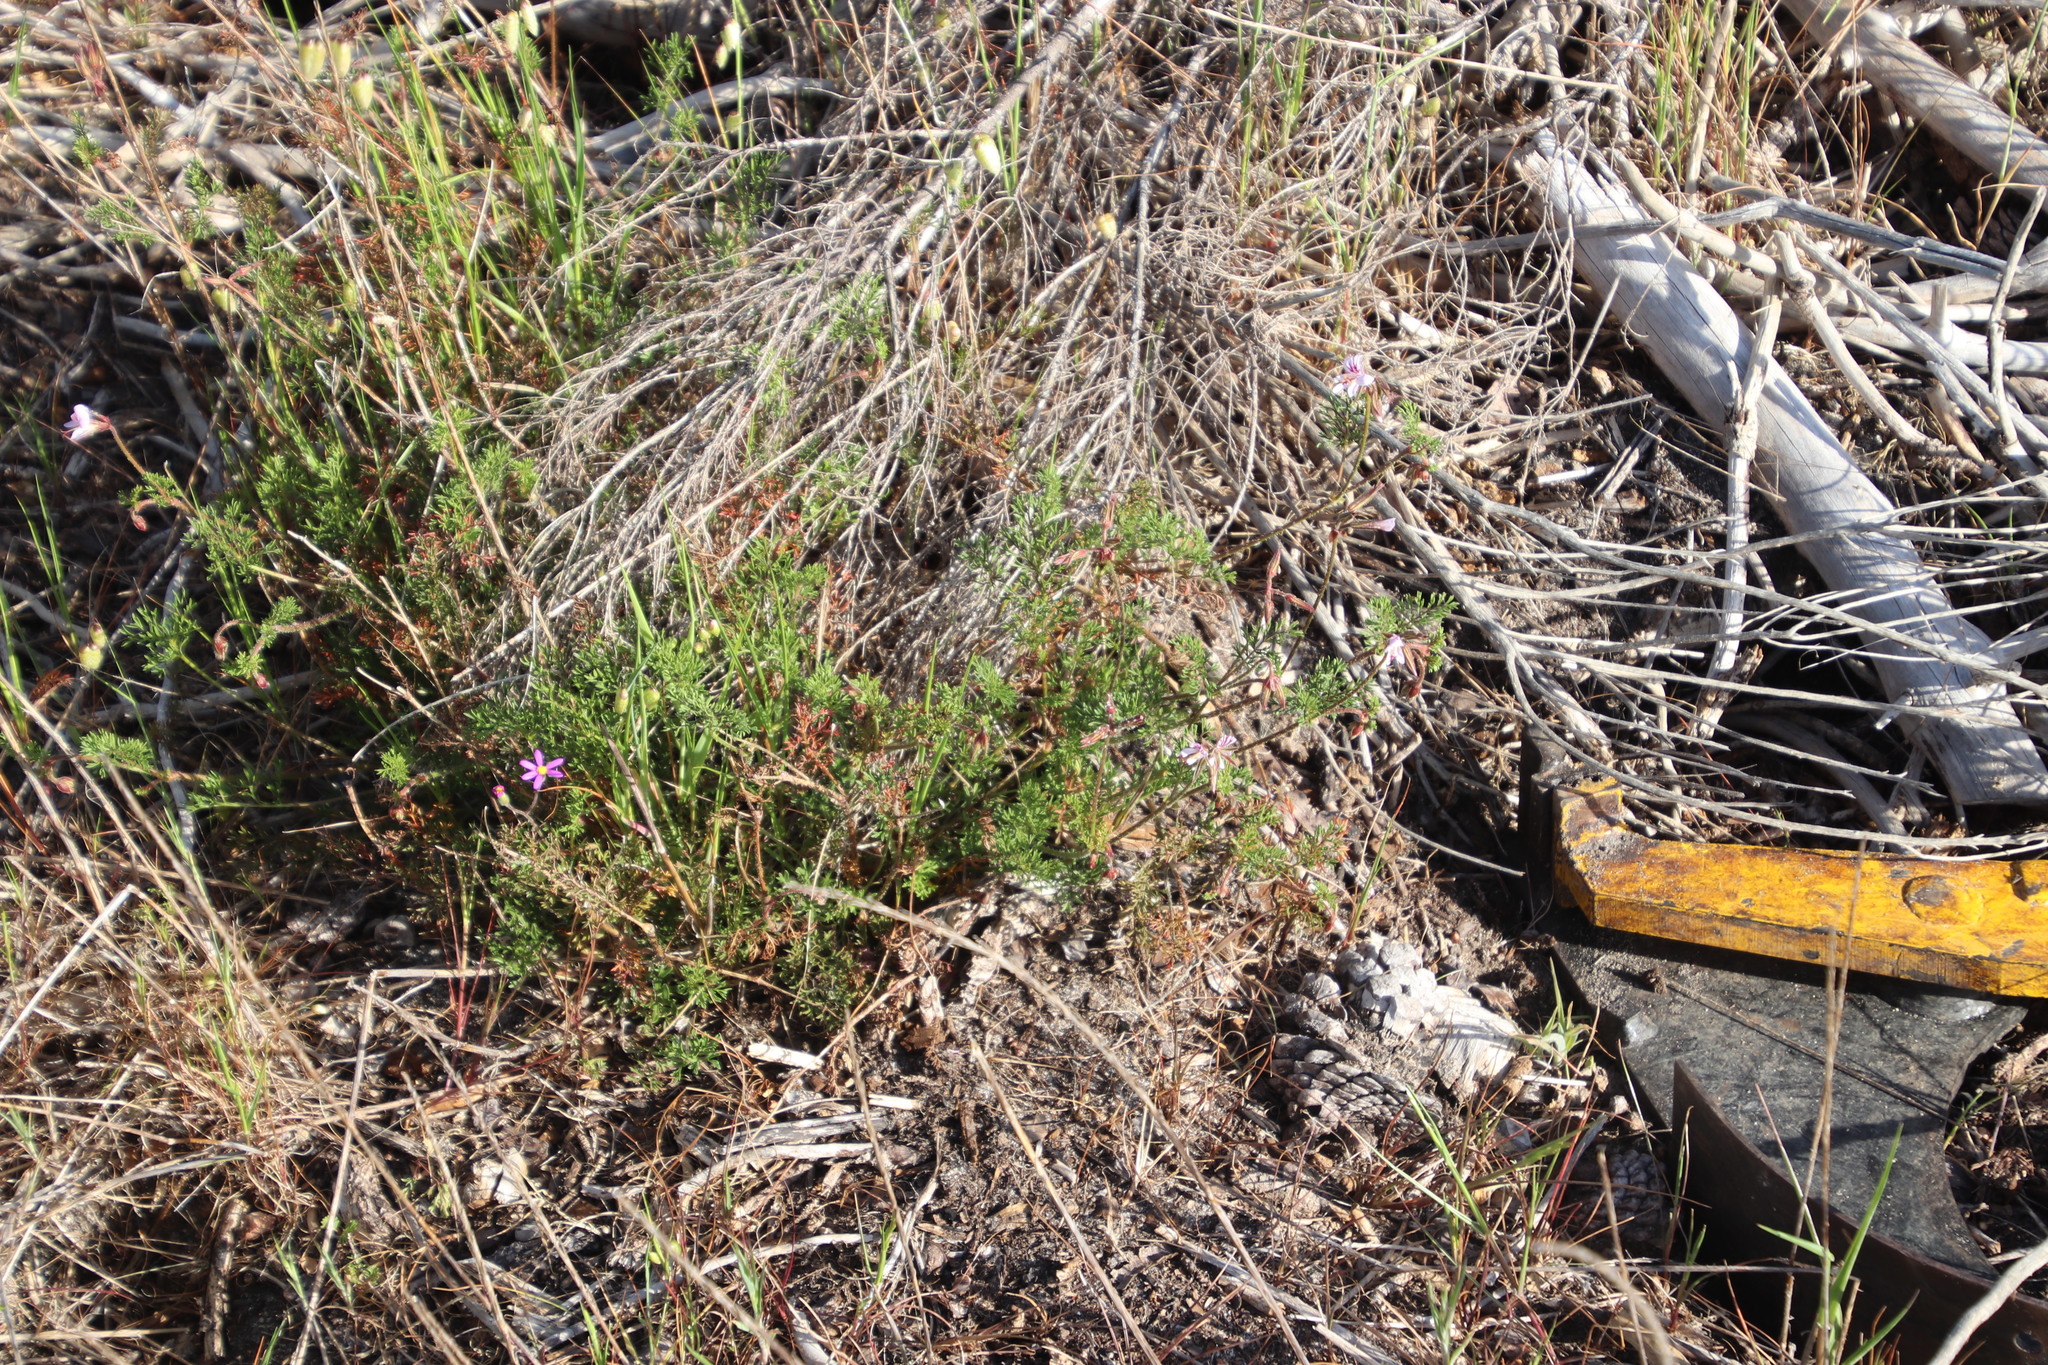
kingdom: Plantae
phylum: Tracheophyta
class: Magnoliopsida
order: Geraniales
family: Geraniaceae
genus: Pelargonium
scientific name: Pelargonium myrrhifolium
